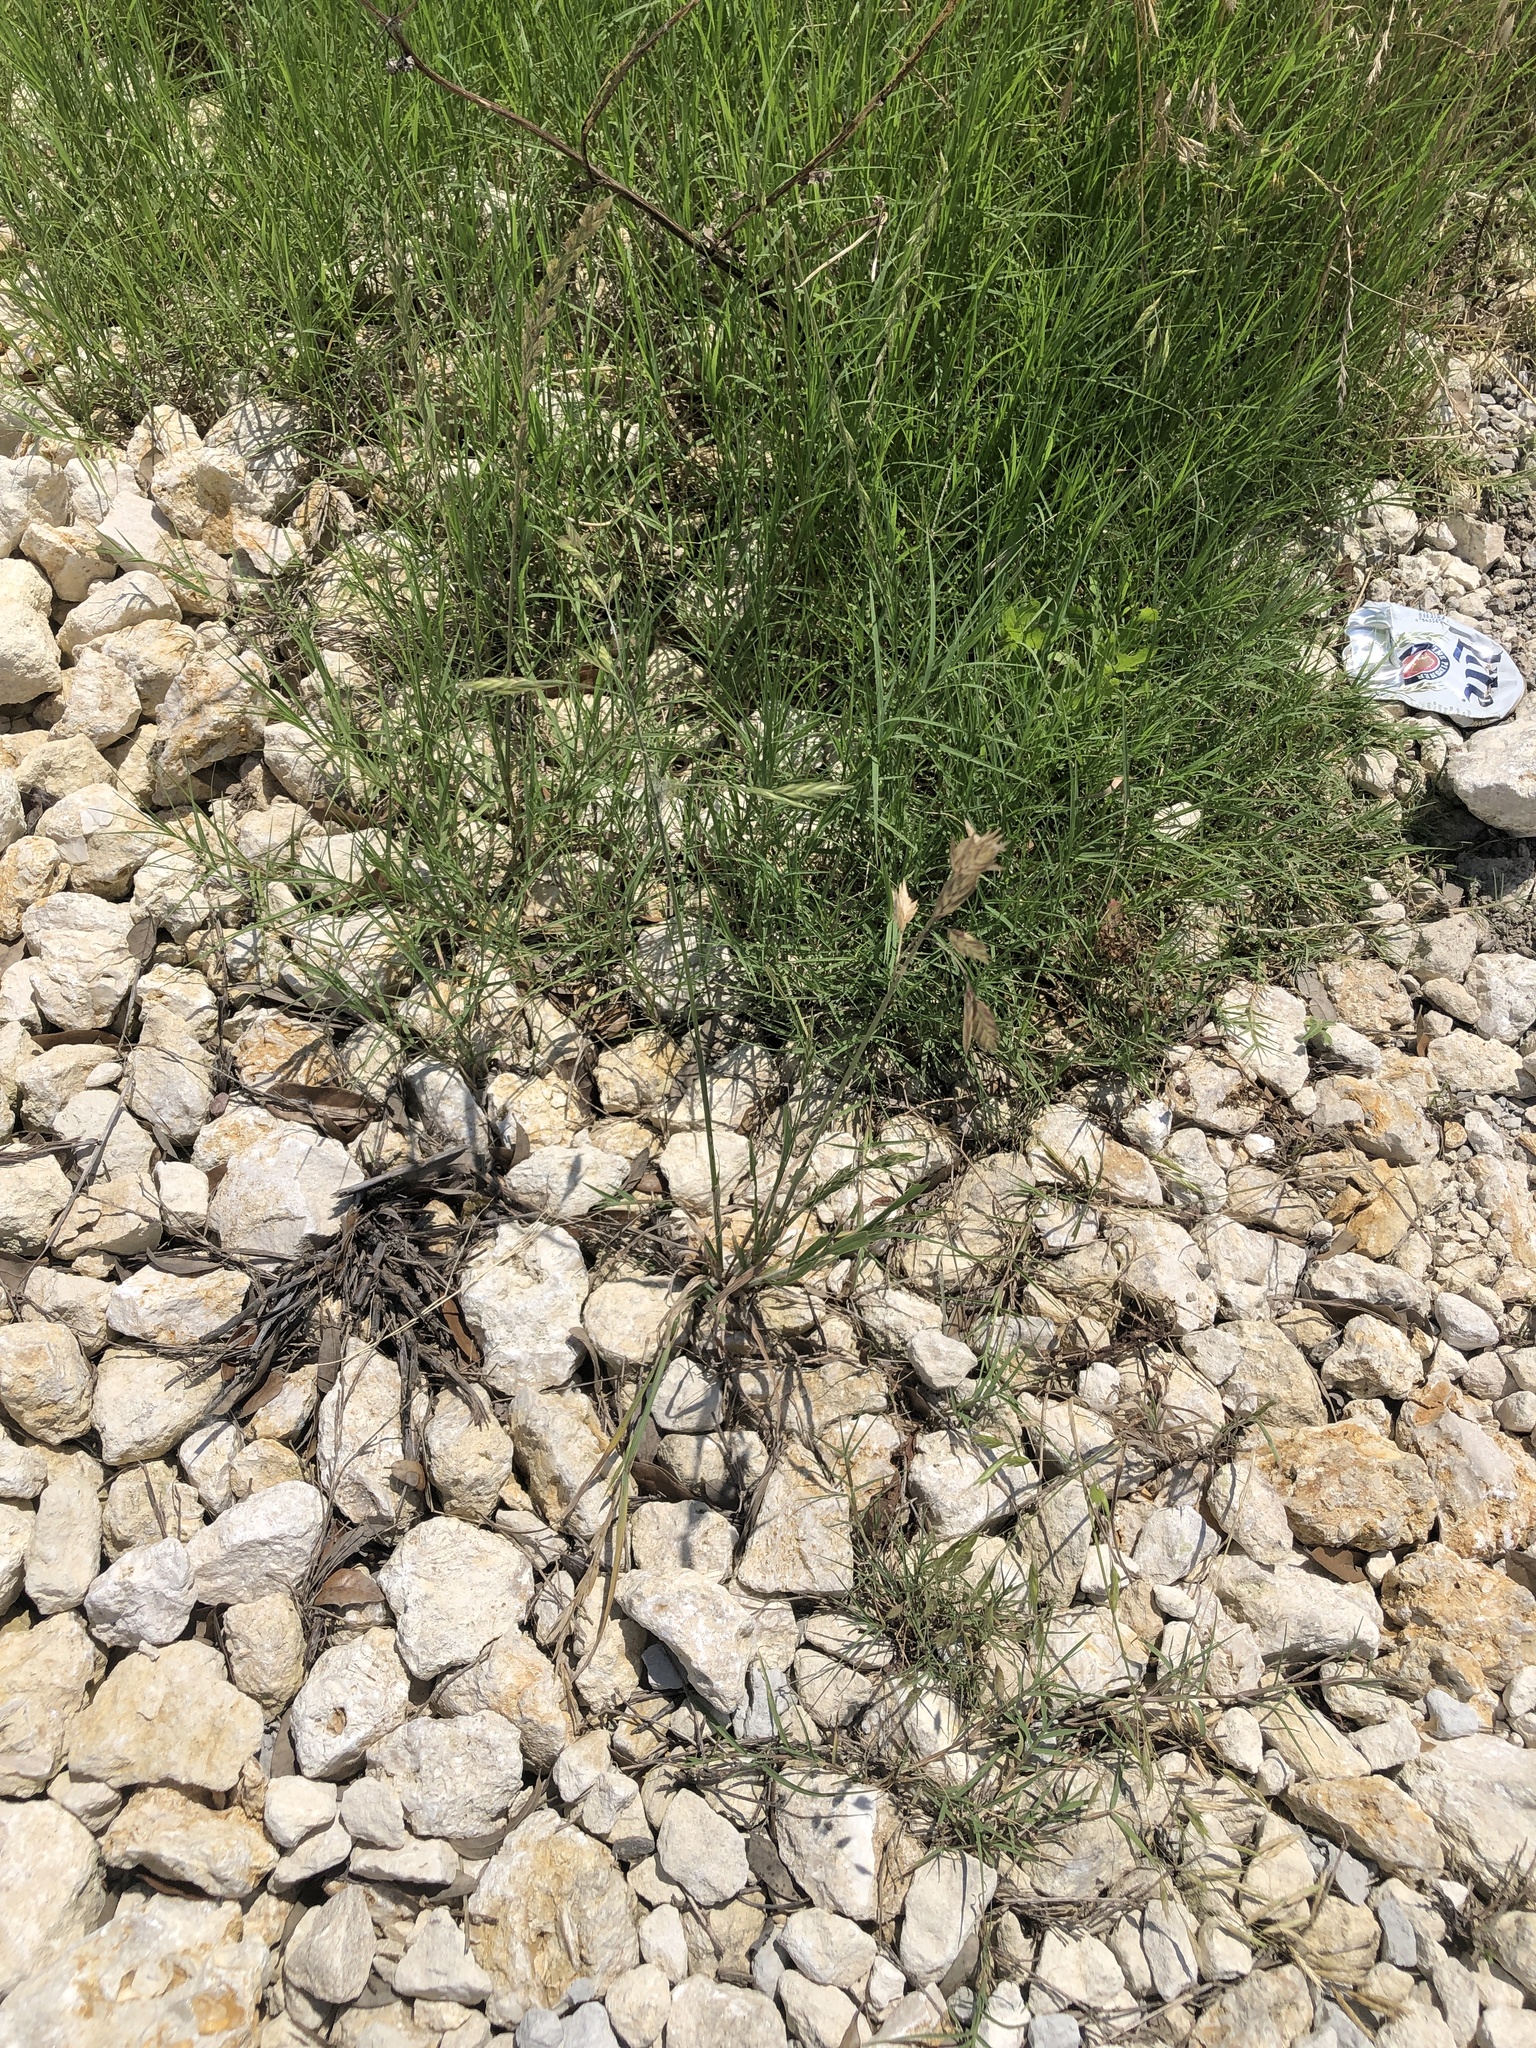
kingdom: Plantae
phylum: Tracheophyta
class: Liliopsida
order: Poales
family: Poaceae
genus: Bromus
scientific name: Bromus catharticus
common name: Rescuegrass
